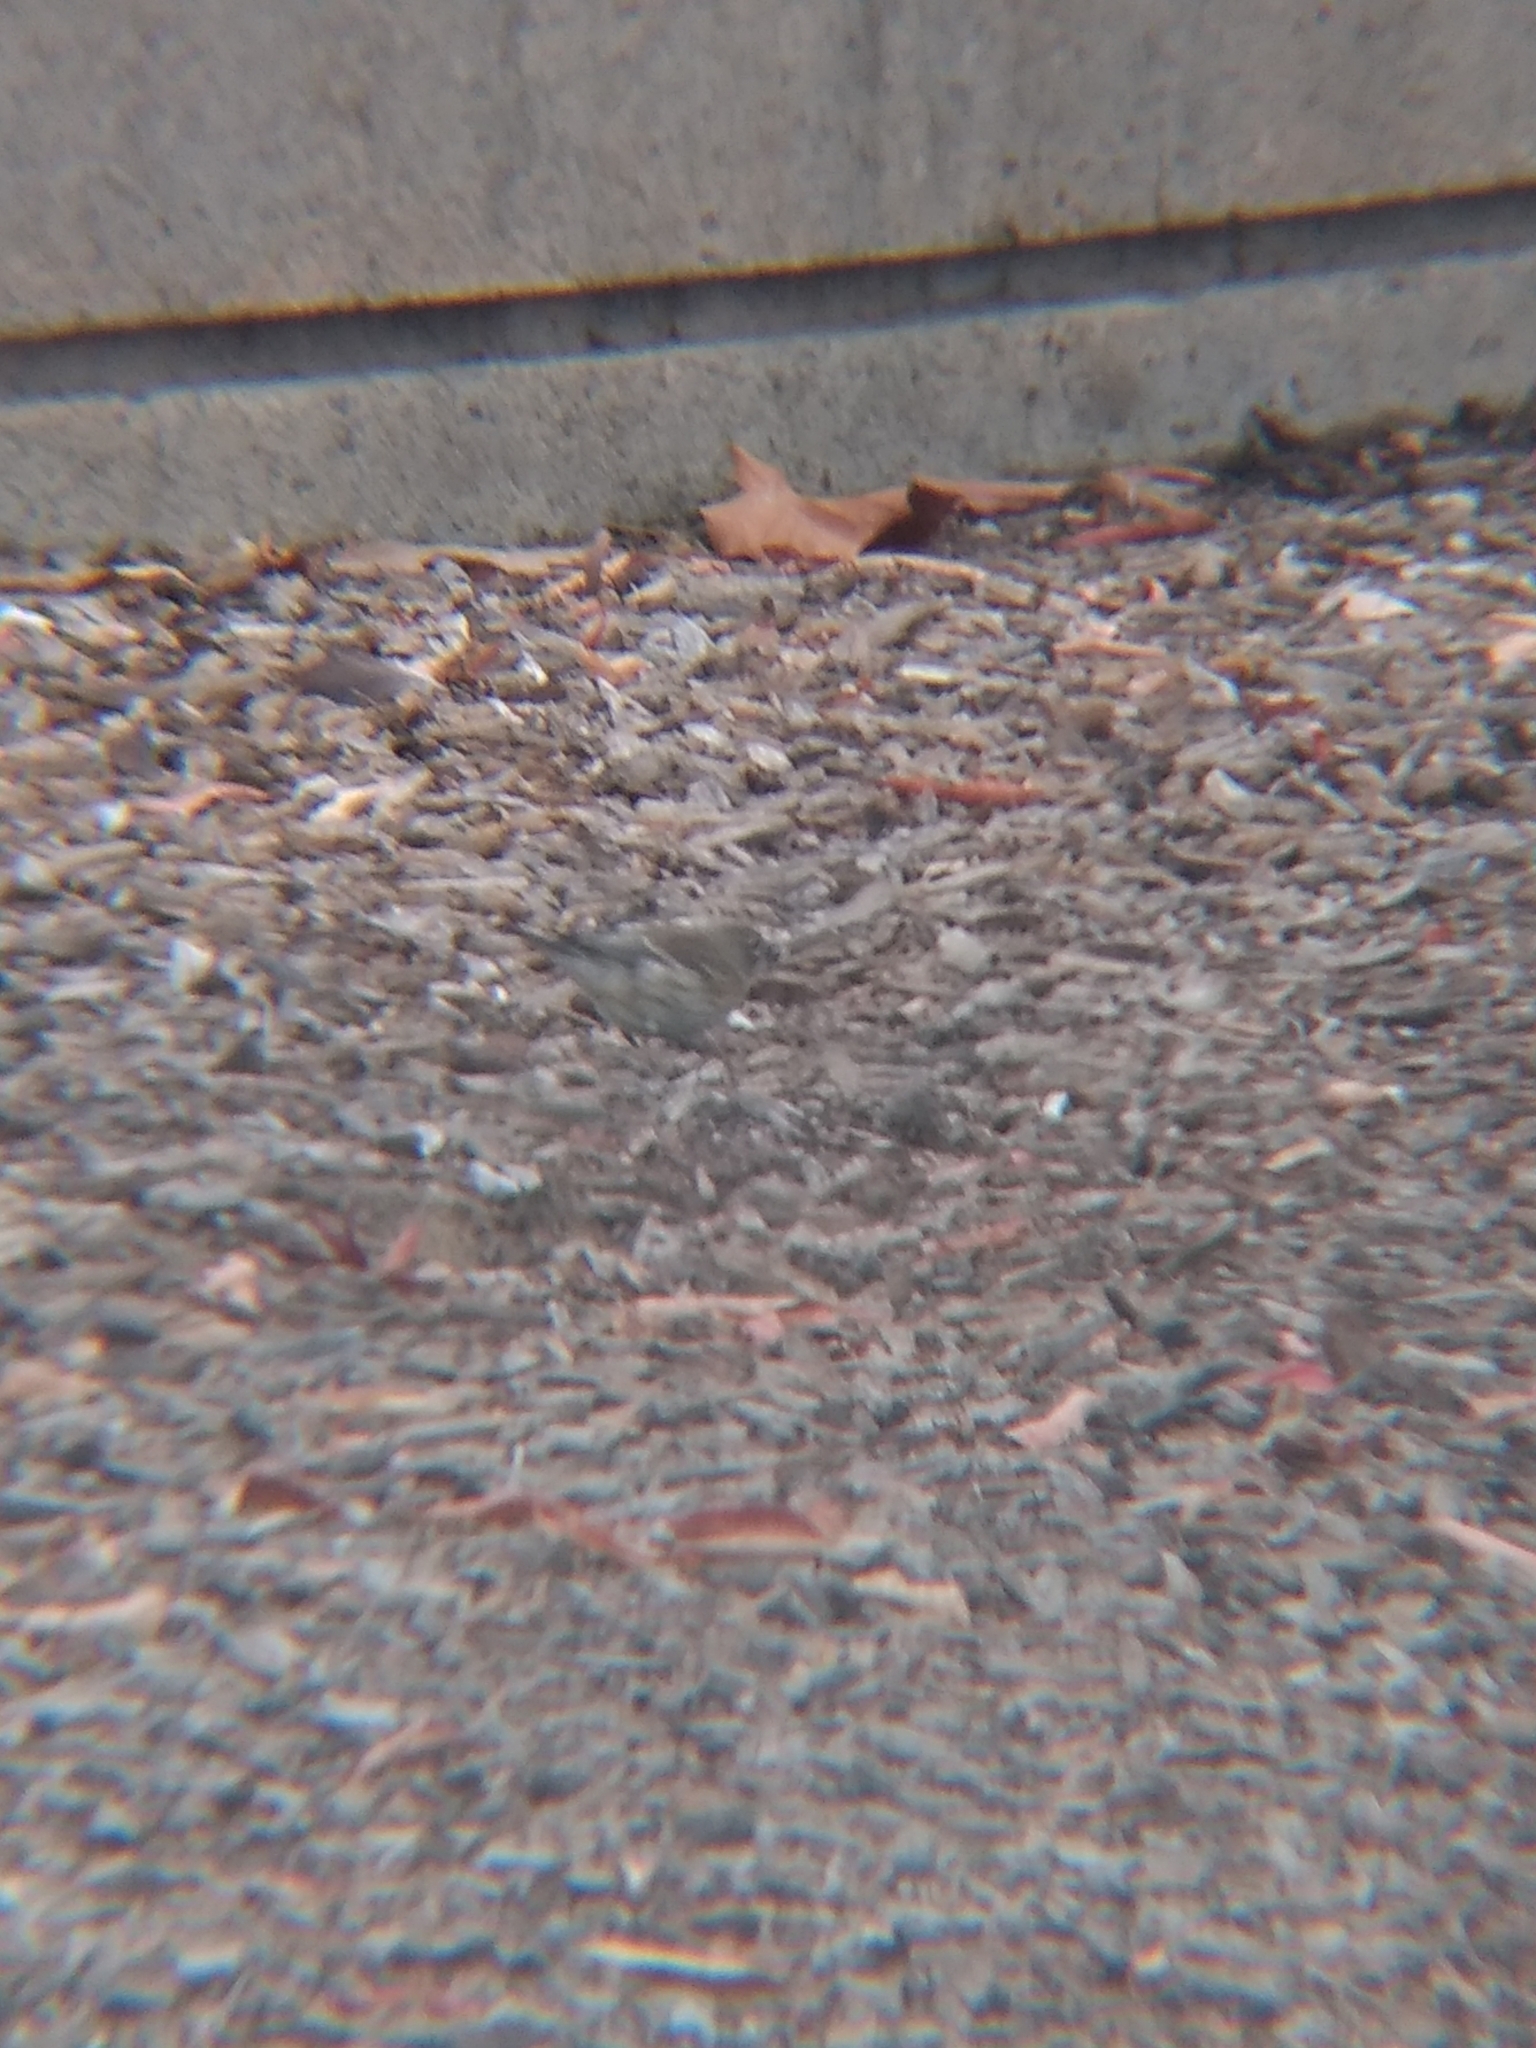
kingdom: Animalia
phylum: Chordata
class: Aves
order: Passeriformes
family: Parulidae
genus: Setophaga
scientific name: Setophaga coronata
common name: Myrtle warbler
